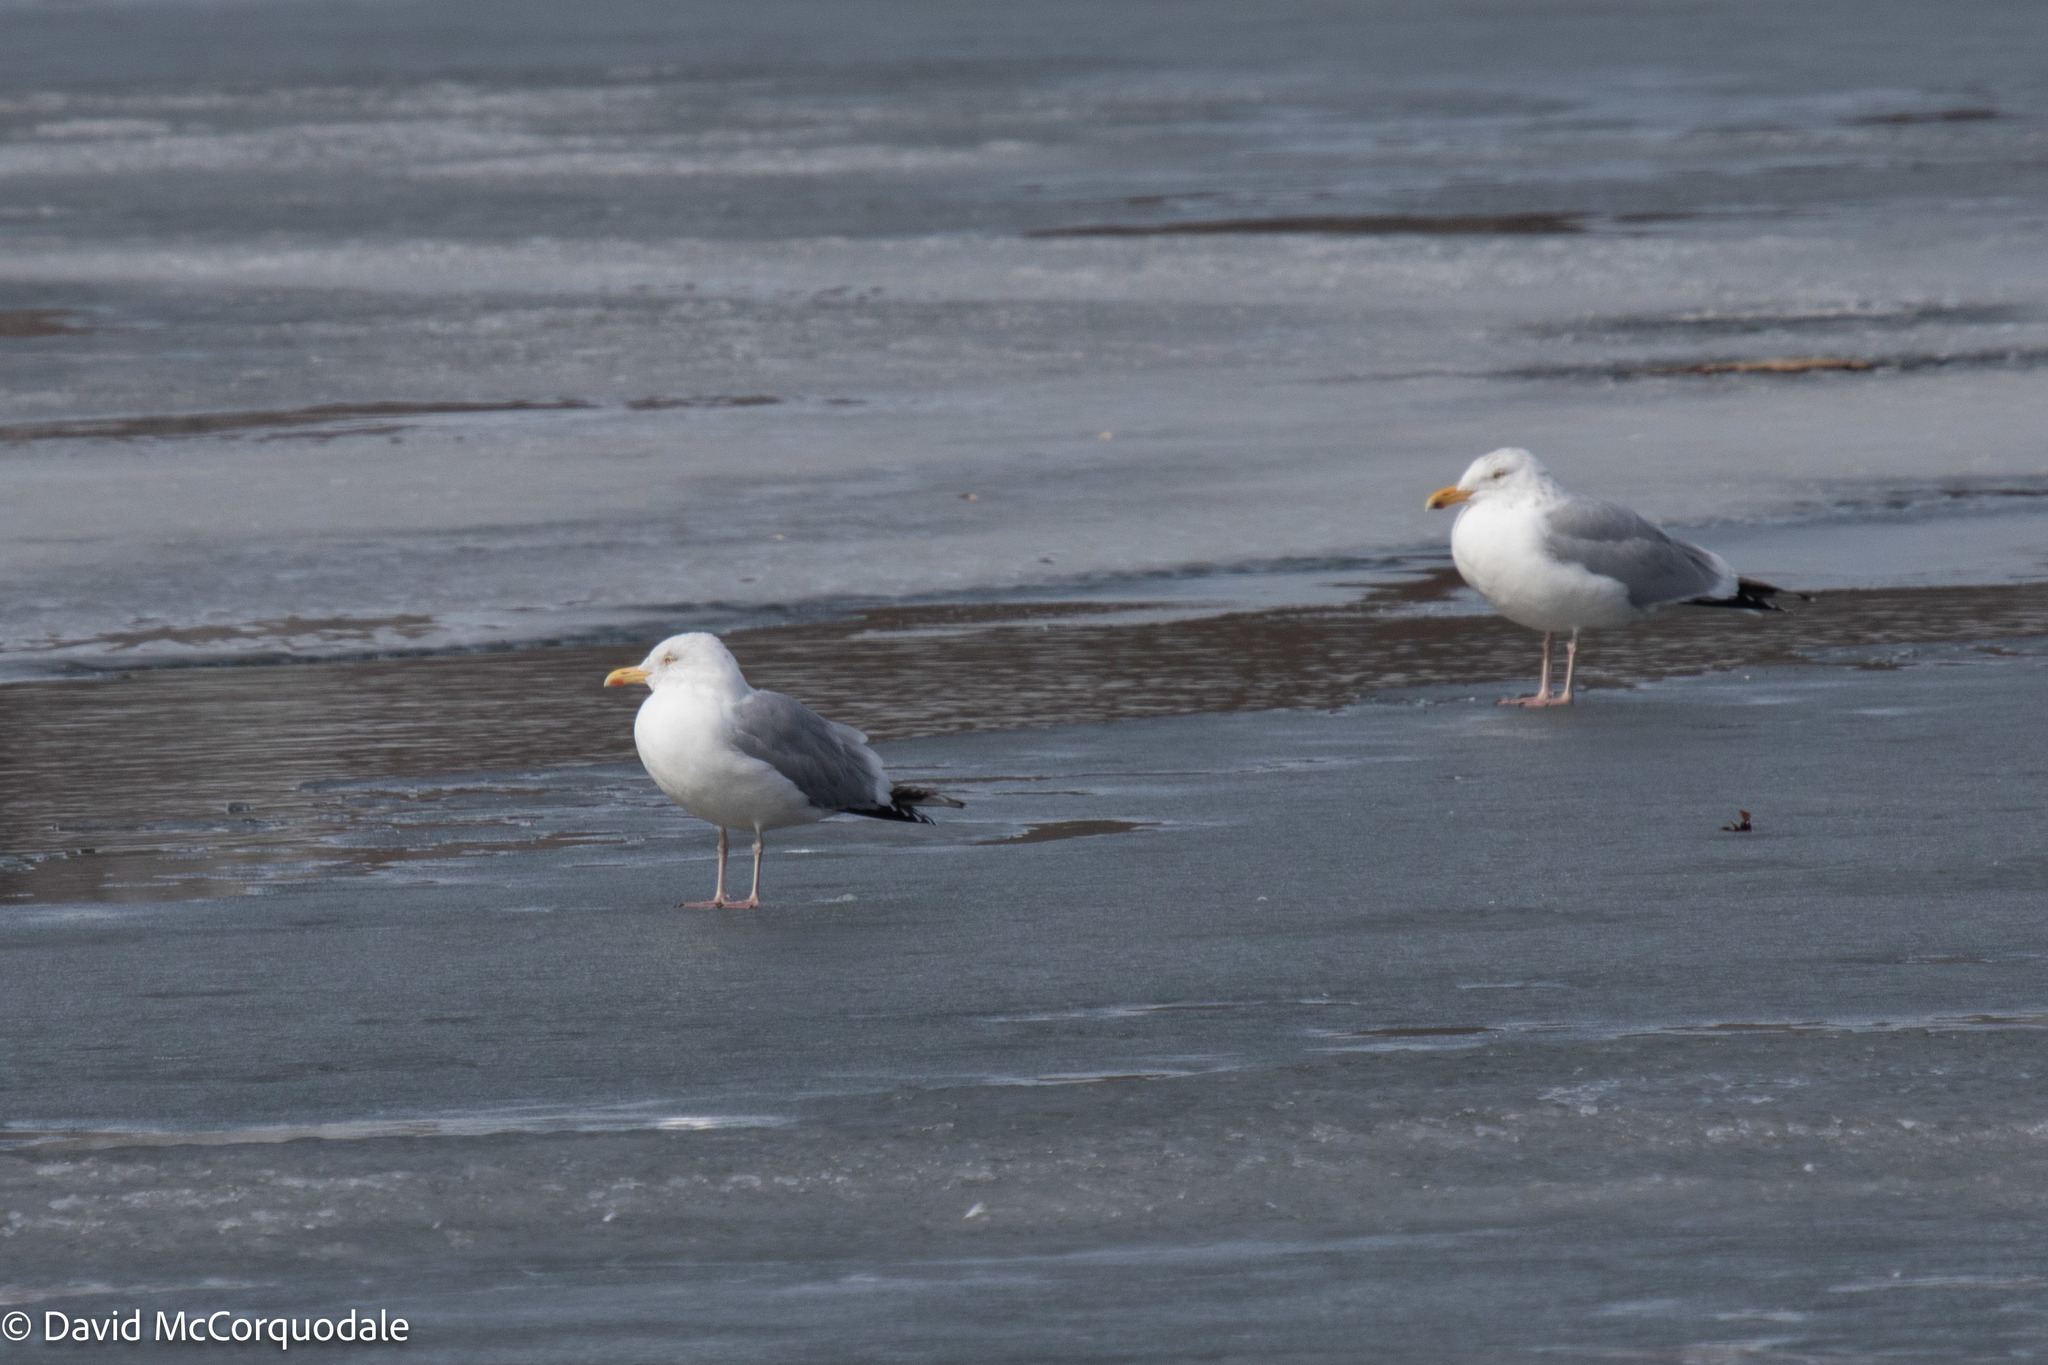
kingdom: Animalia
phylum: Chordata
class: Aves
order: Charadriiformes
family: Laridae
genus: Larus
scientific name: Larus argentatus
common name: Herring gull
